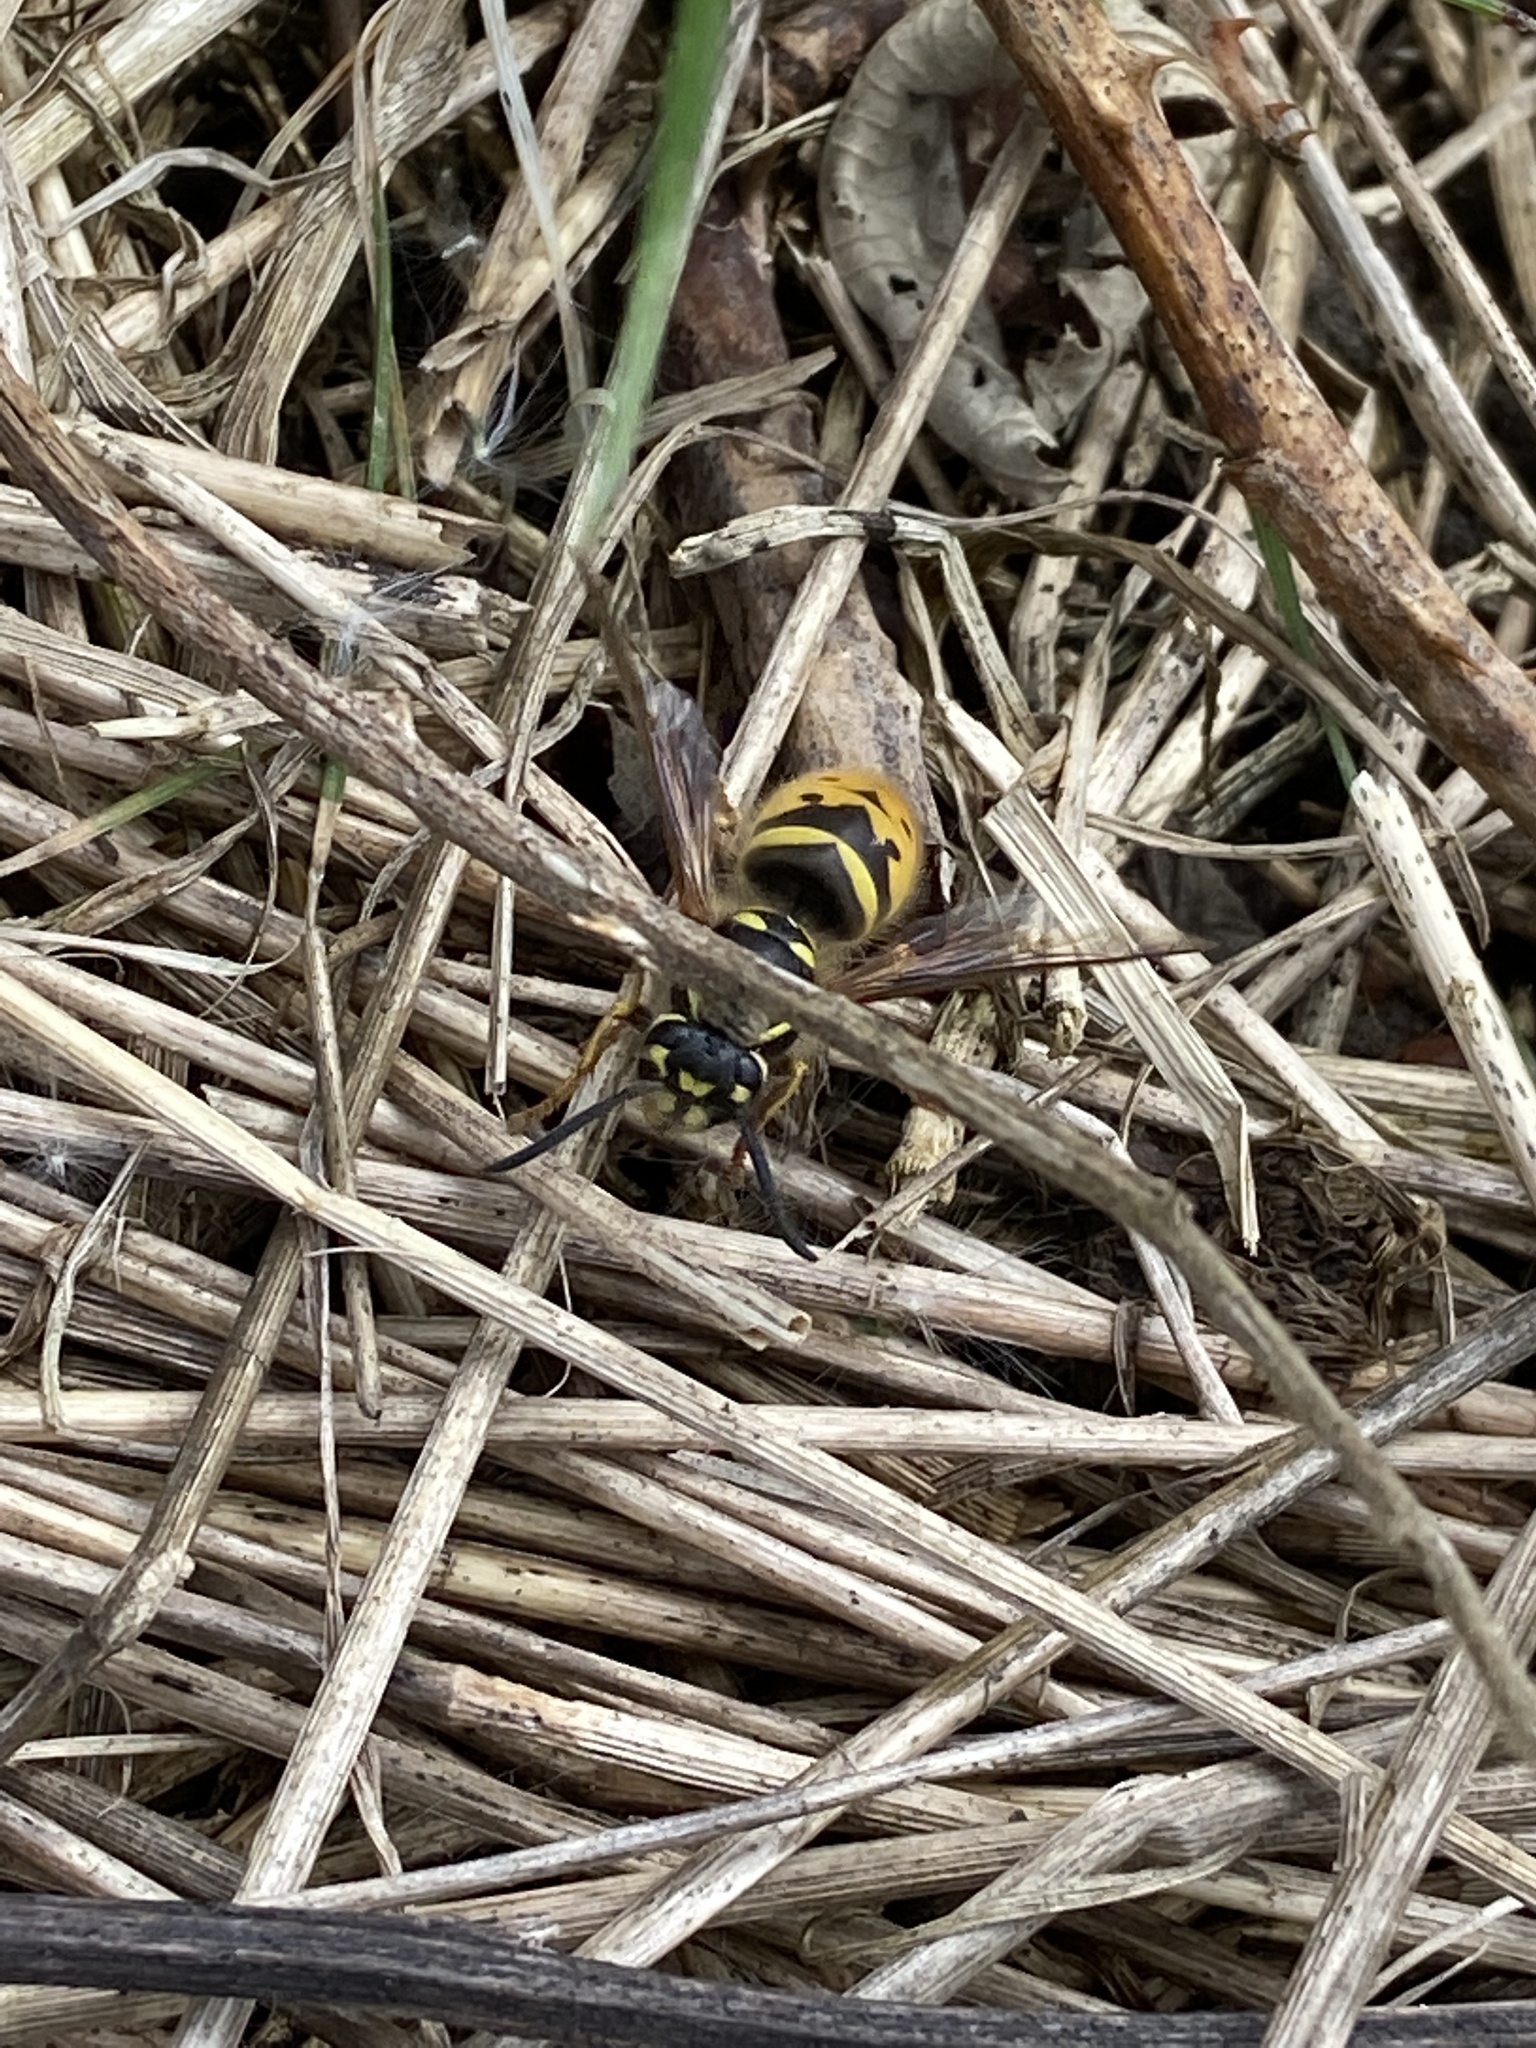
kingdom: Animalia
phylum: Arthropoda
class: Insecta
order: Hymenoptera
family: Vespidae
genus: Vespula
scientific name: Vespula vulgaris
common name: Common wasp
